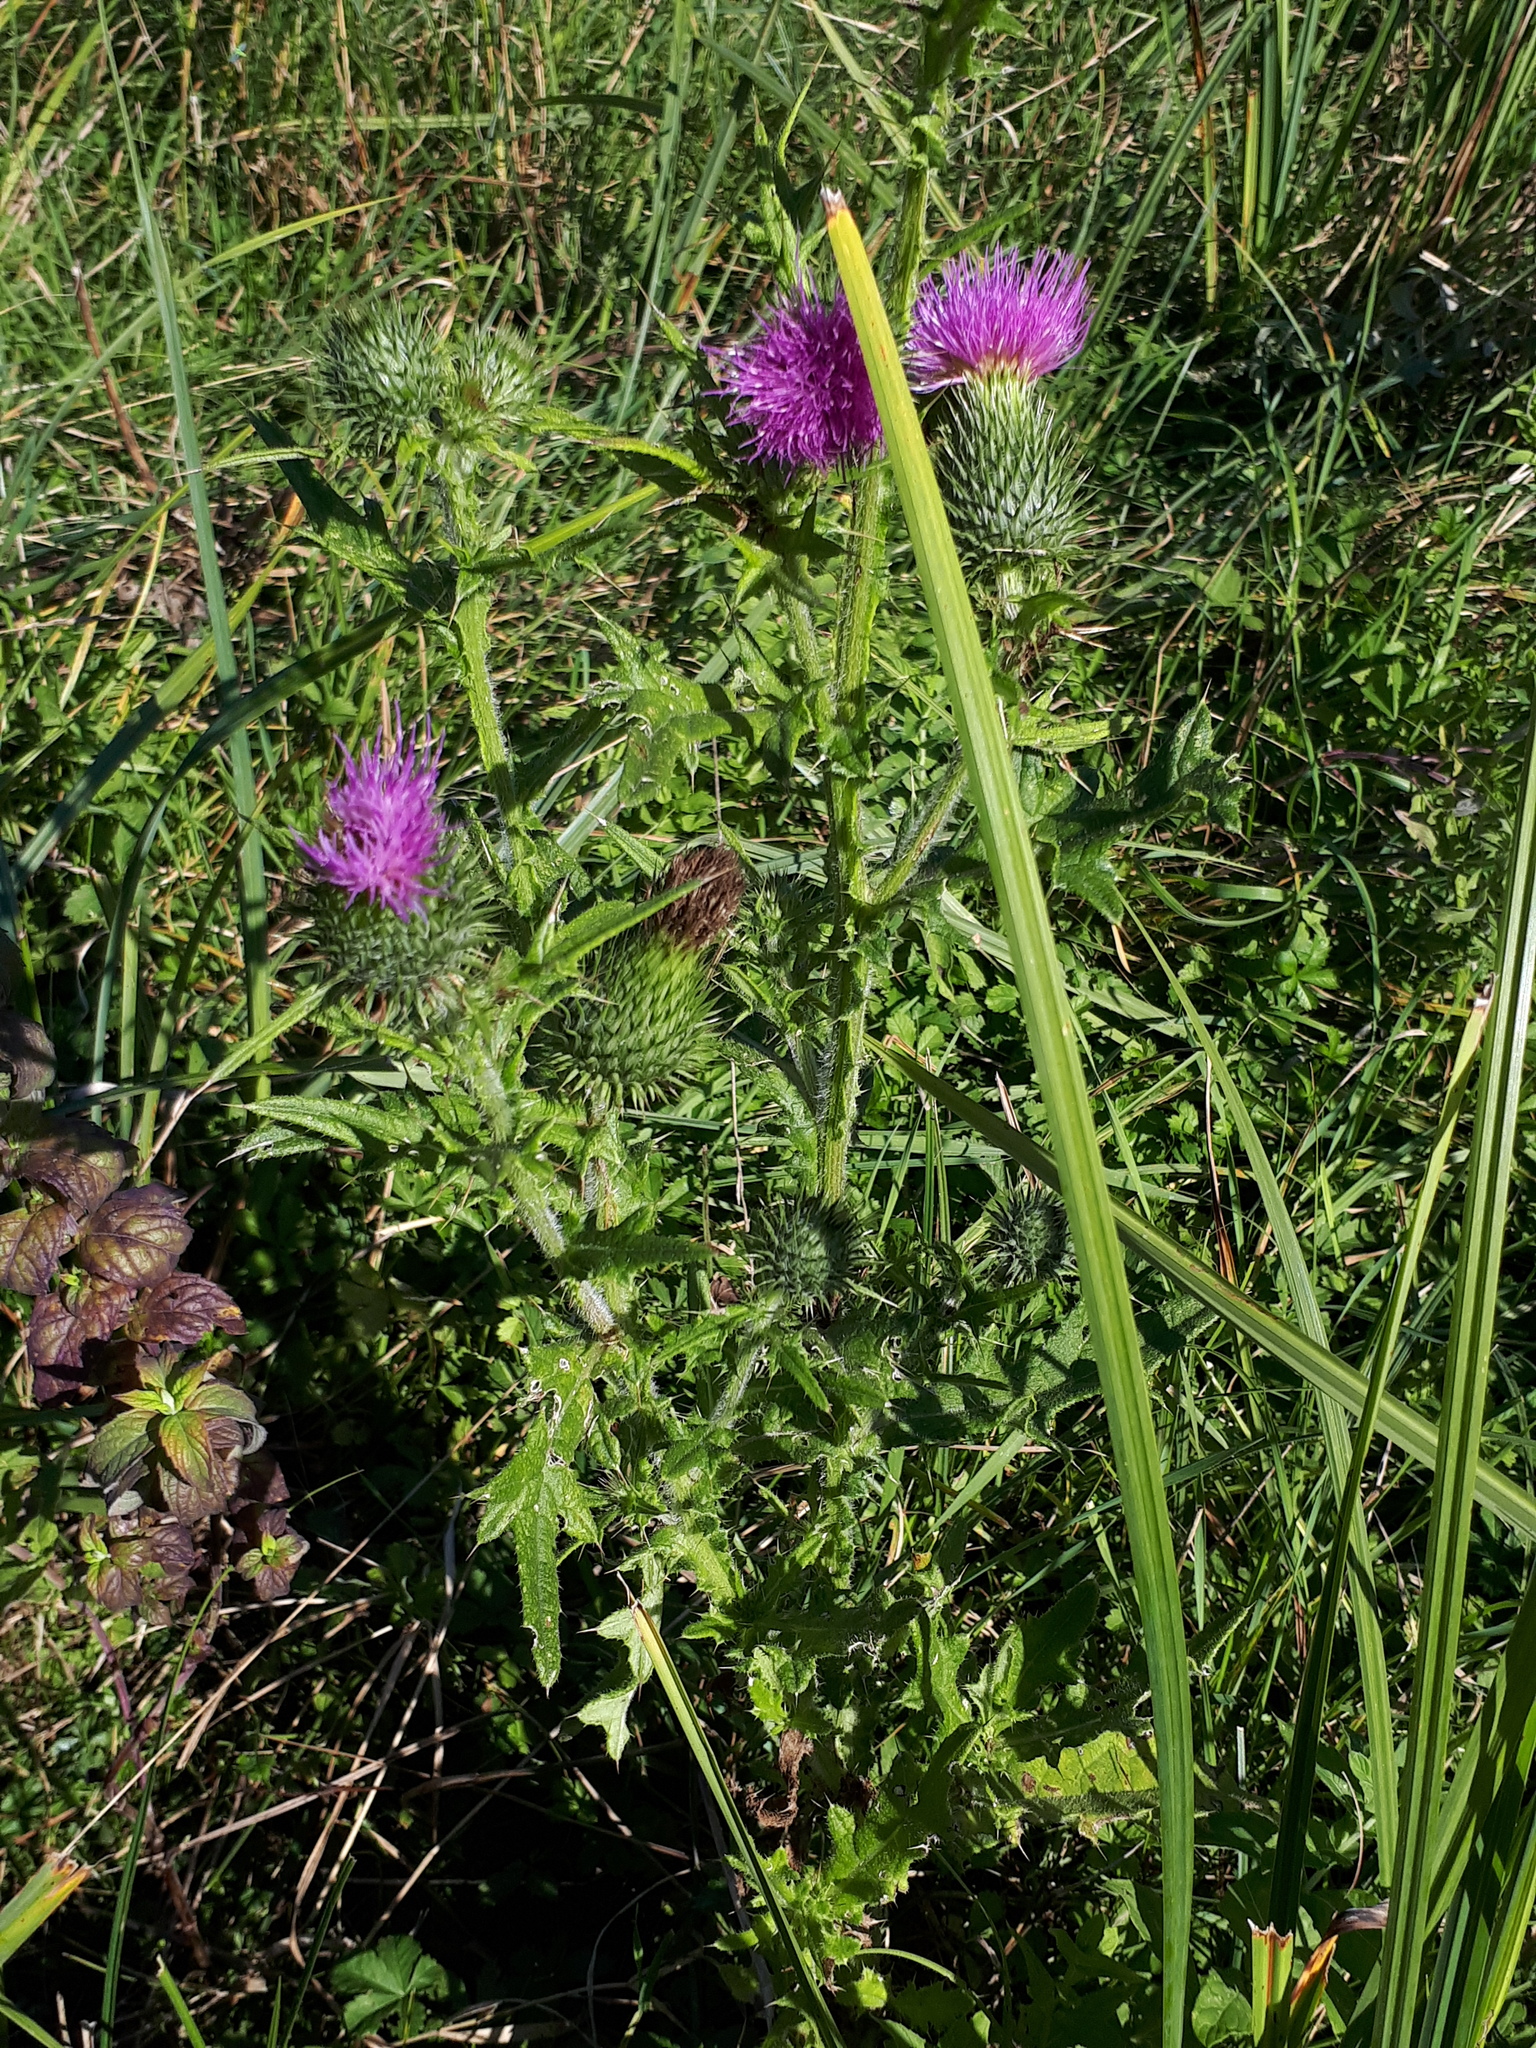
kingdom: Plantae
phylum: Tracheophyta
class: Magnoliopsida
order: Asterales
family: Asteraceae
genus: Cirsium
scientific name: Cirsium vulgare
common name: Bull thistle
